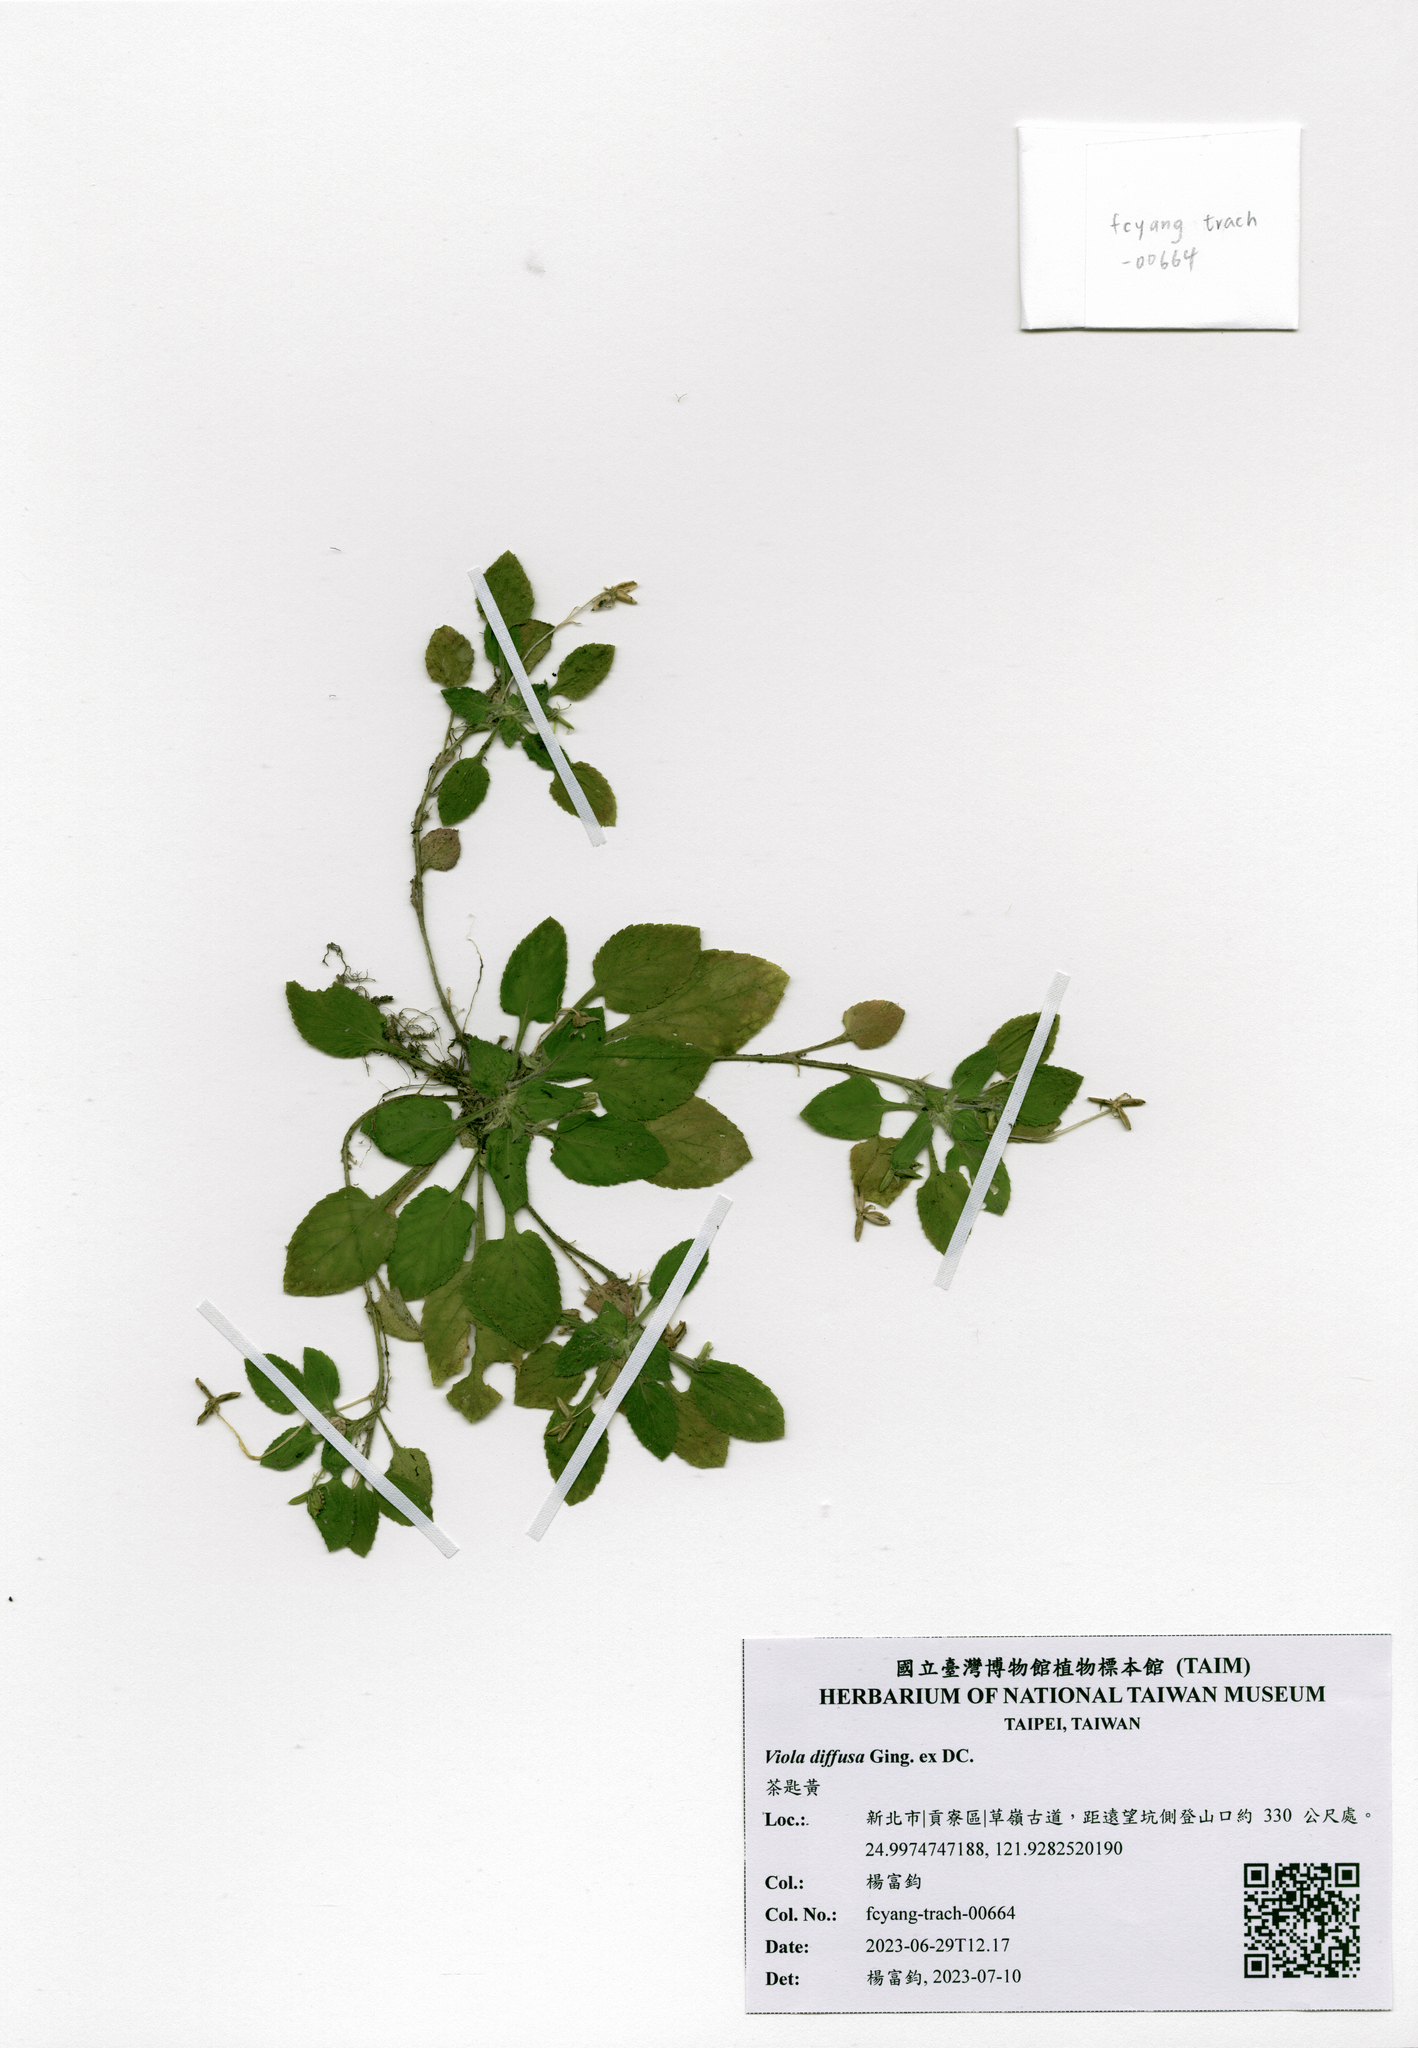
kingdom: Plantae
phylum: Tracheophyta
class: Magnoliopsida
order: Malpighiales
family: Violaceae
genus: Viola
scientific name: Viola diffusa
